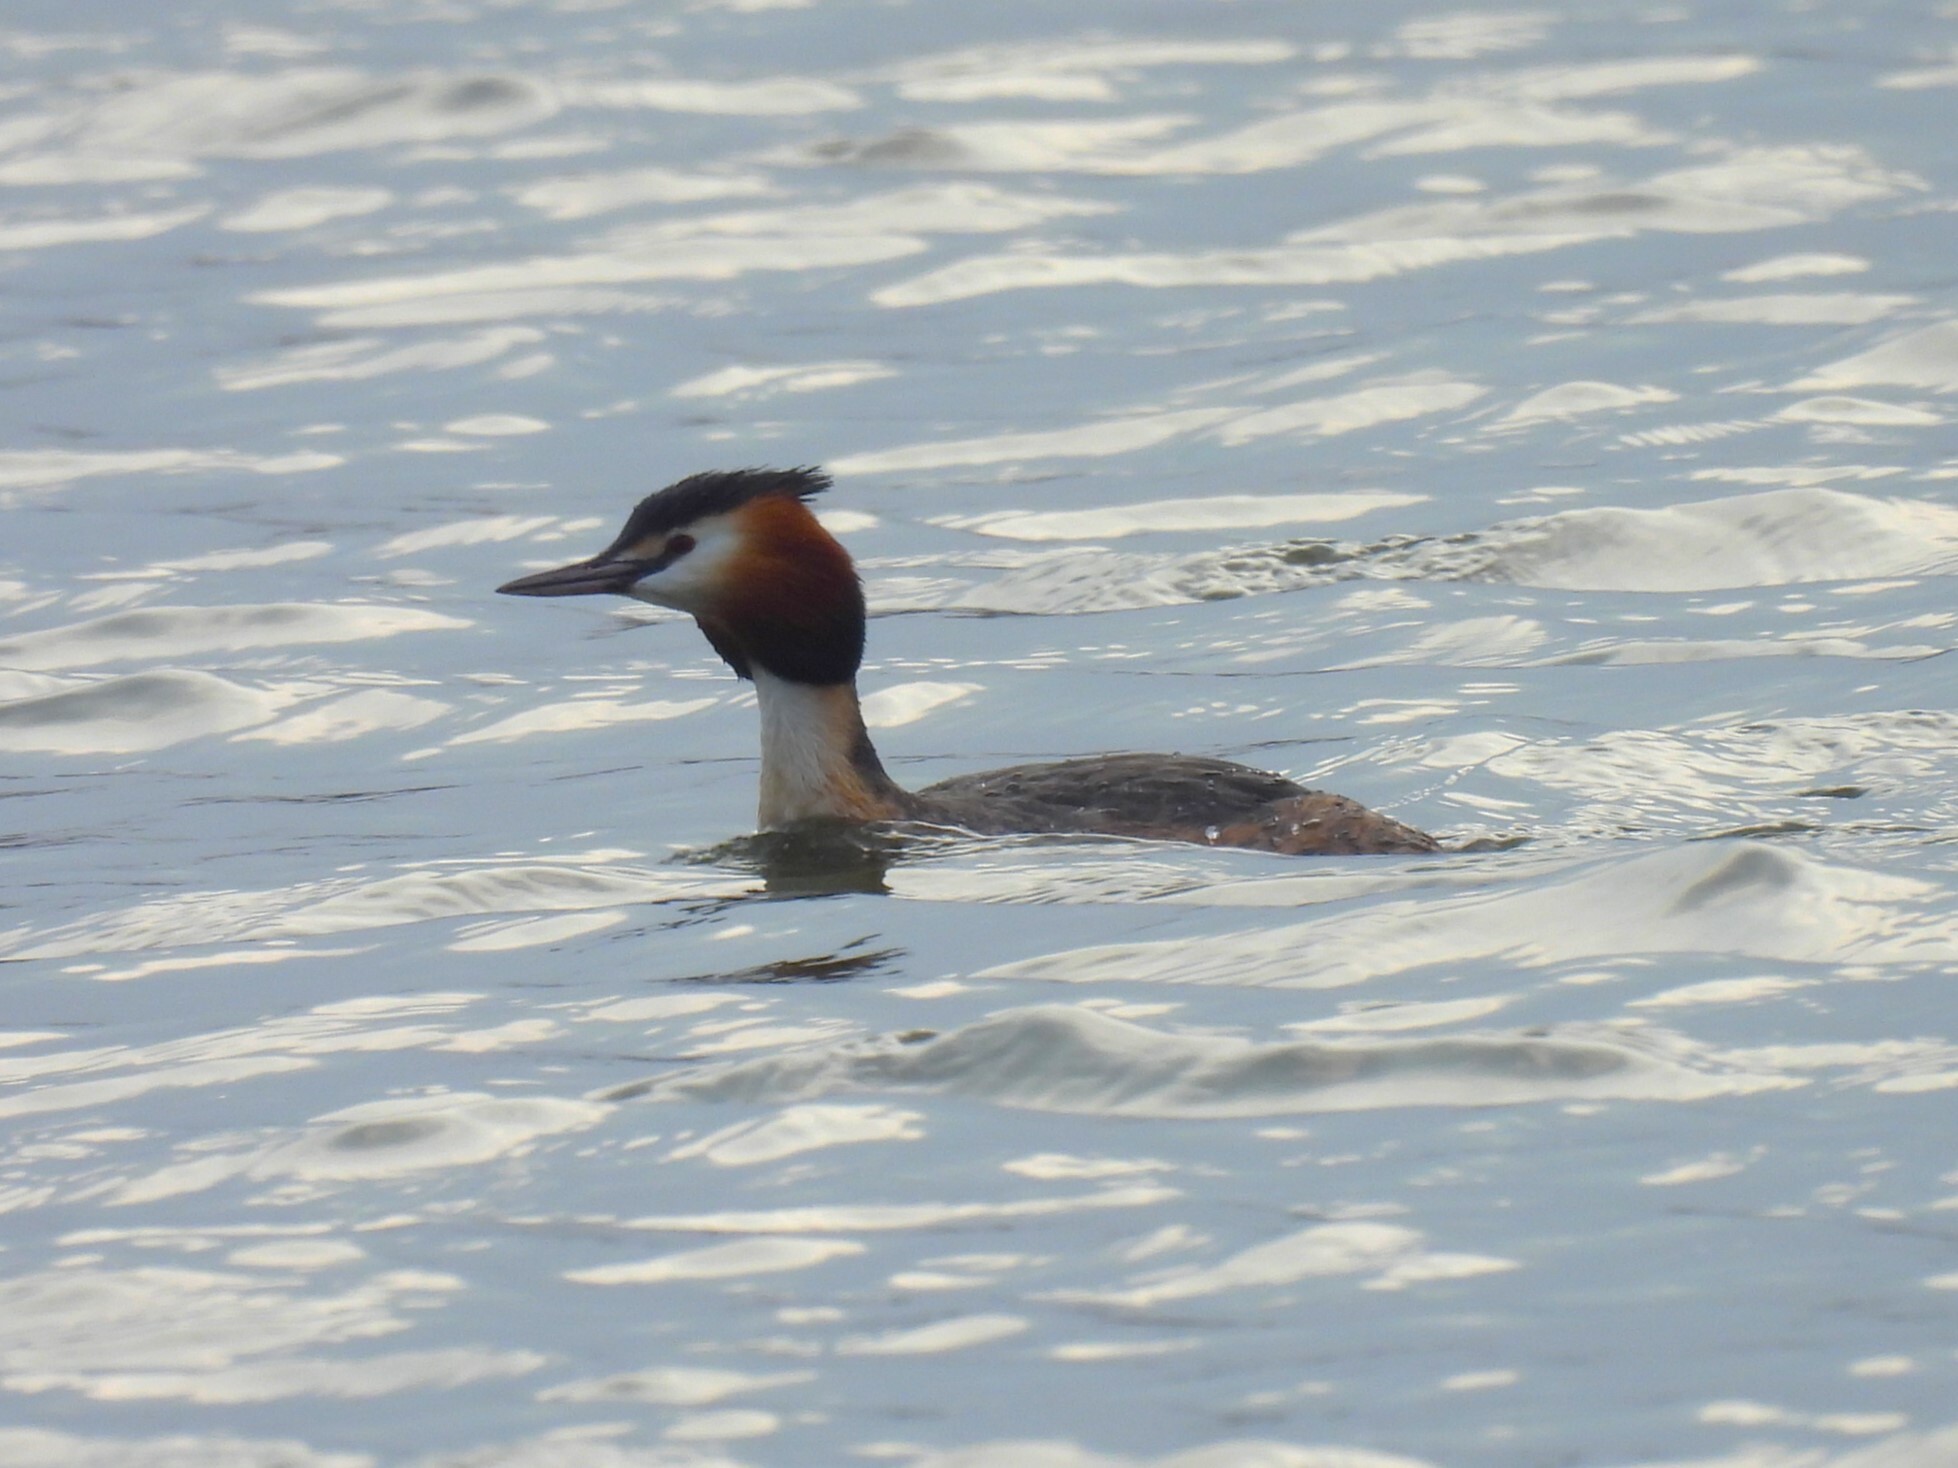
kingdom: Animalia
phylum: Chordata
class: Aves
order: Podicipediformes
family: Podicipedidae
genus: Podiceps
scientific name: Podiceps cristatus
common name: Great crested grebe
